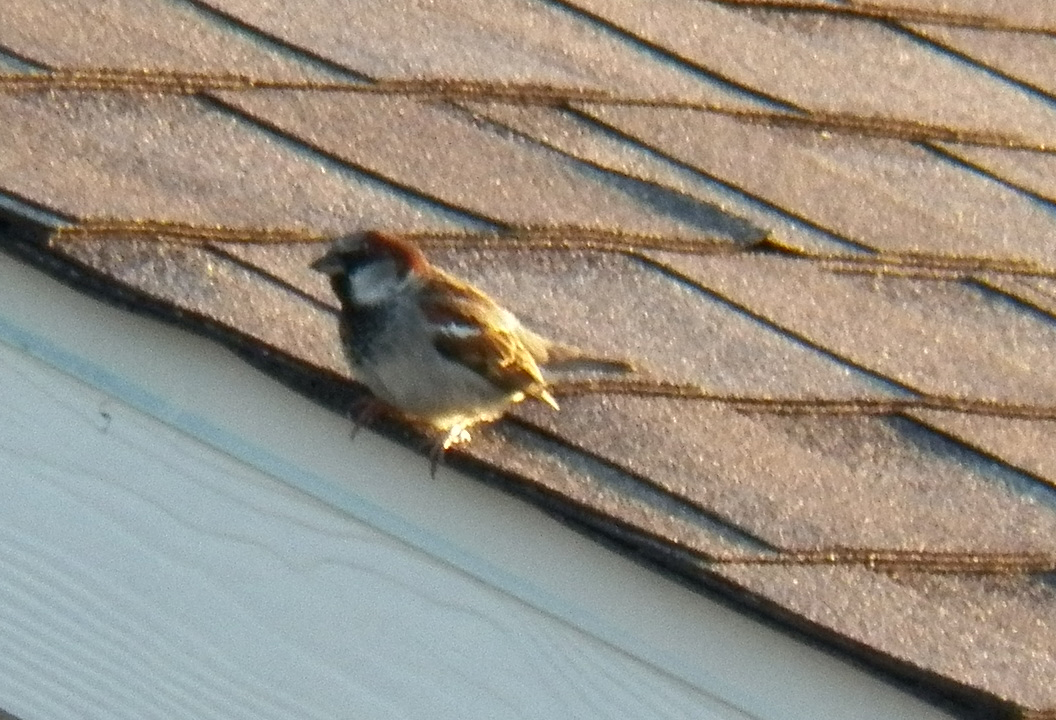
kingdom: Animalia
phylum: Chordata
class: Aves
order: Passeriformes
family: Passeridae
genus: Passer
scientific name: Passer domesticus
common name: House sparrow
